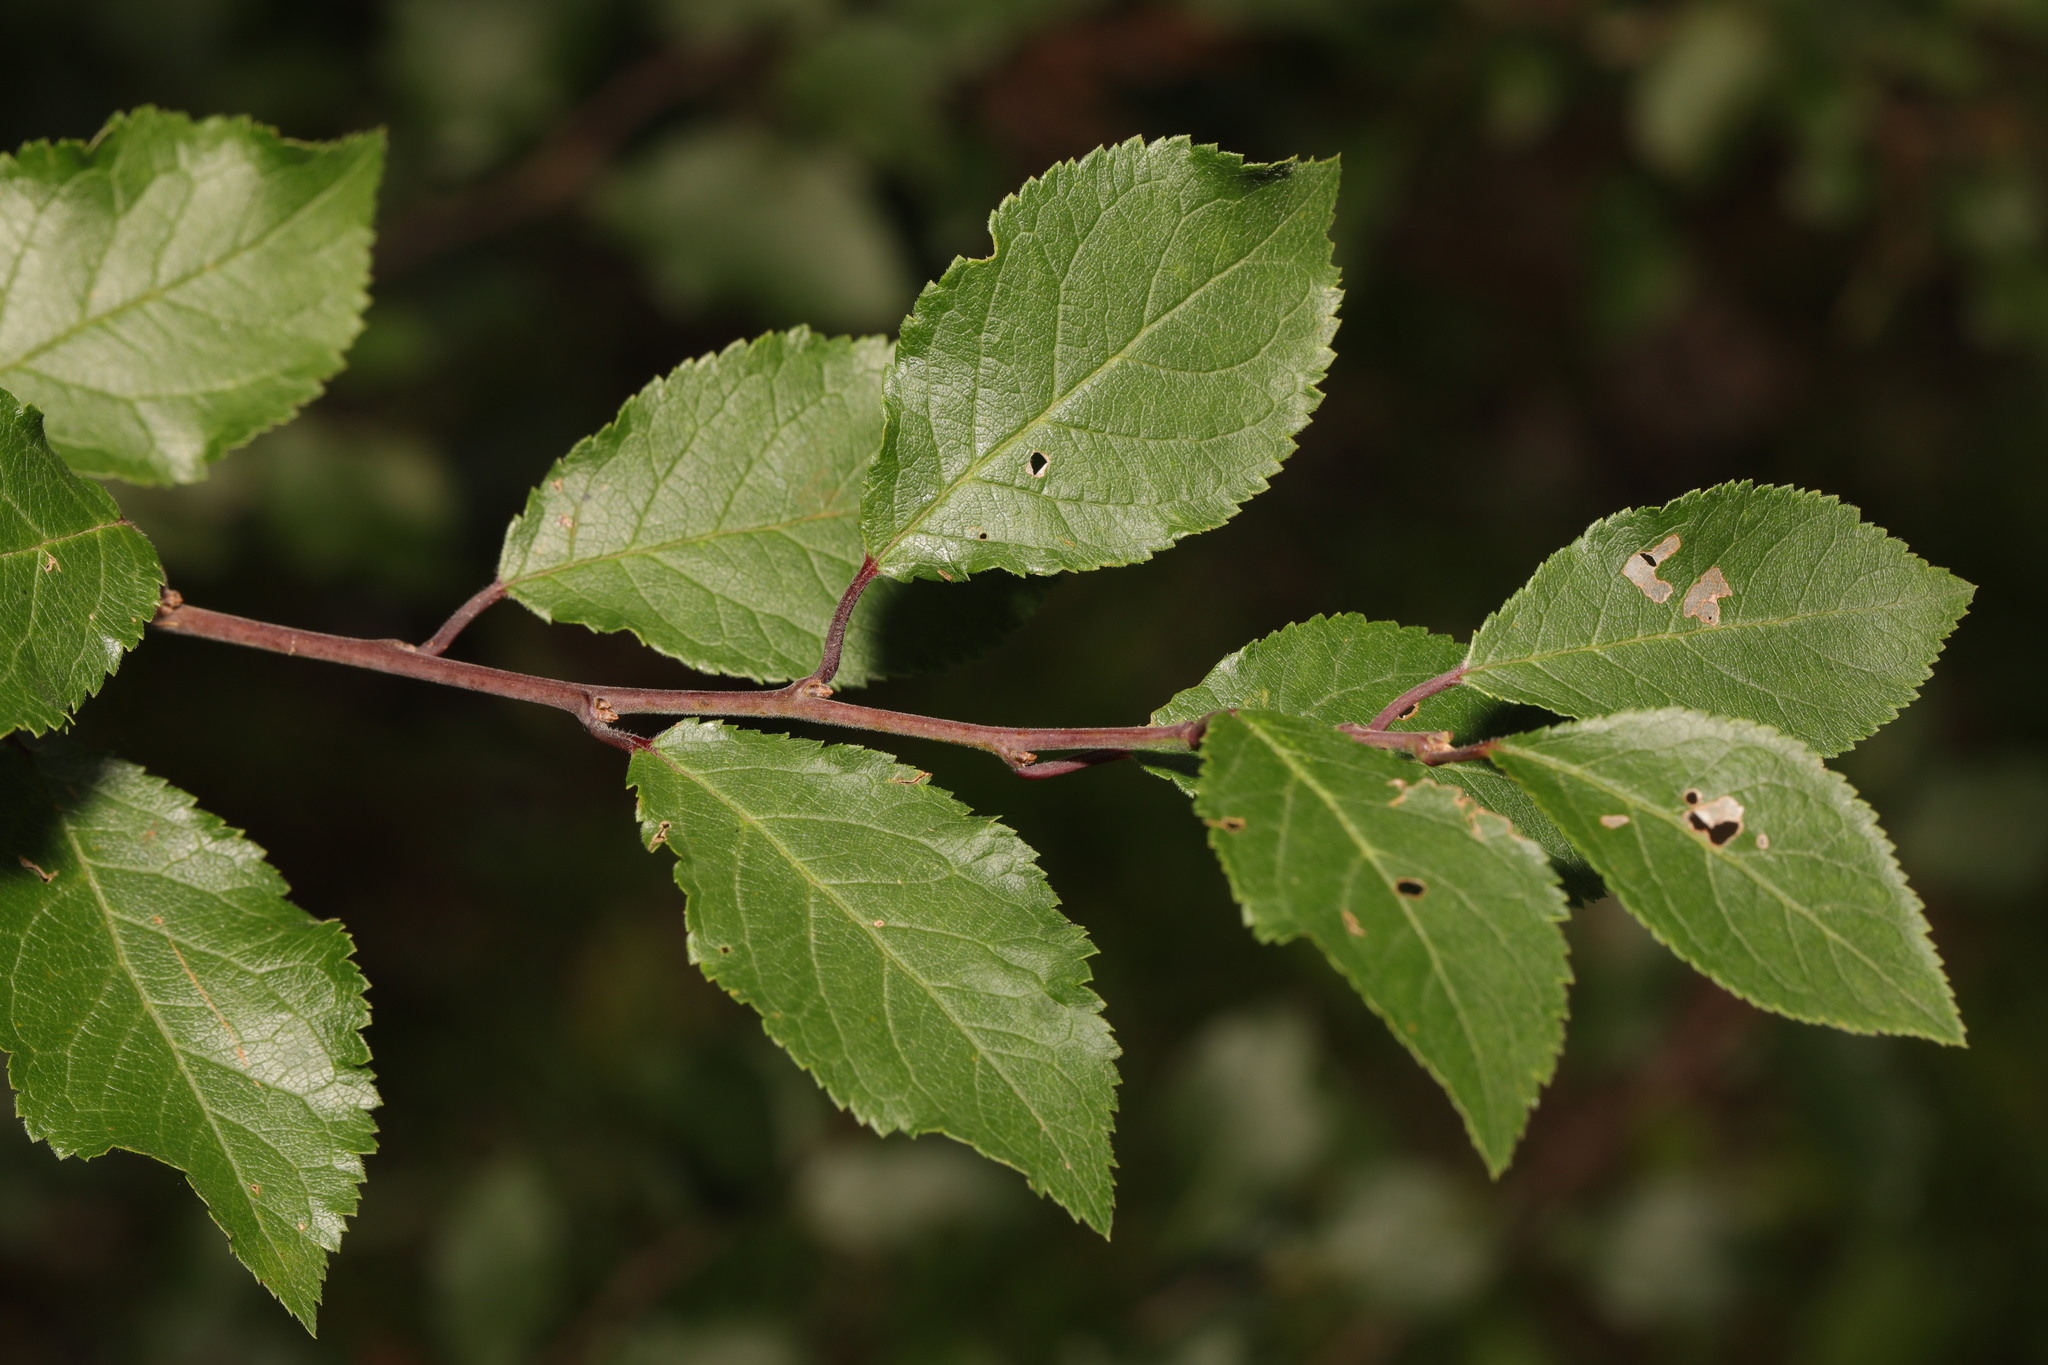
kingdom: Plantae
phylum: Tracheophyta
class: Magnoliopsida
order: Rosales
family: Rosaceae
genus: Prunus
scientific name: Prunus spinosa
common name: Blackthorn
